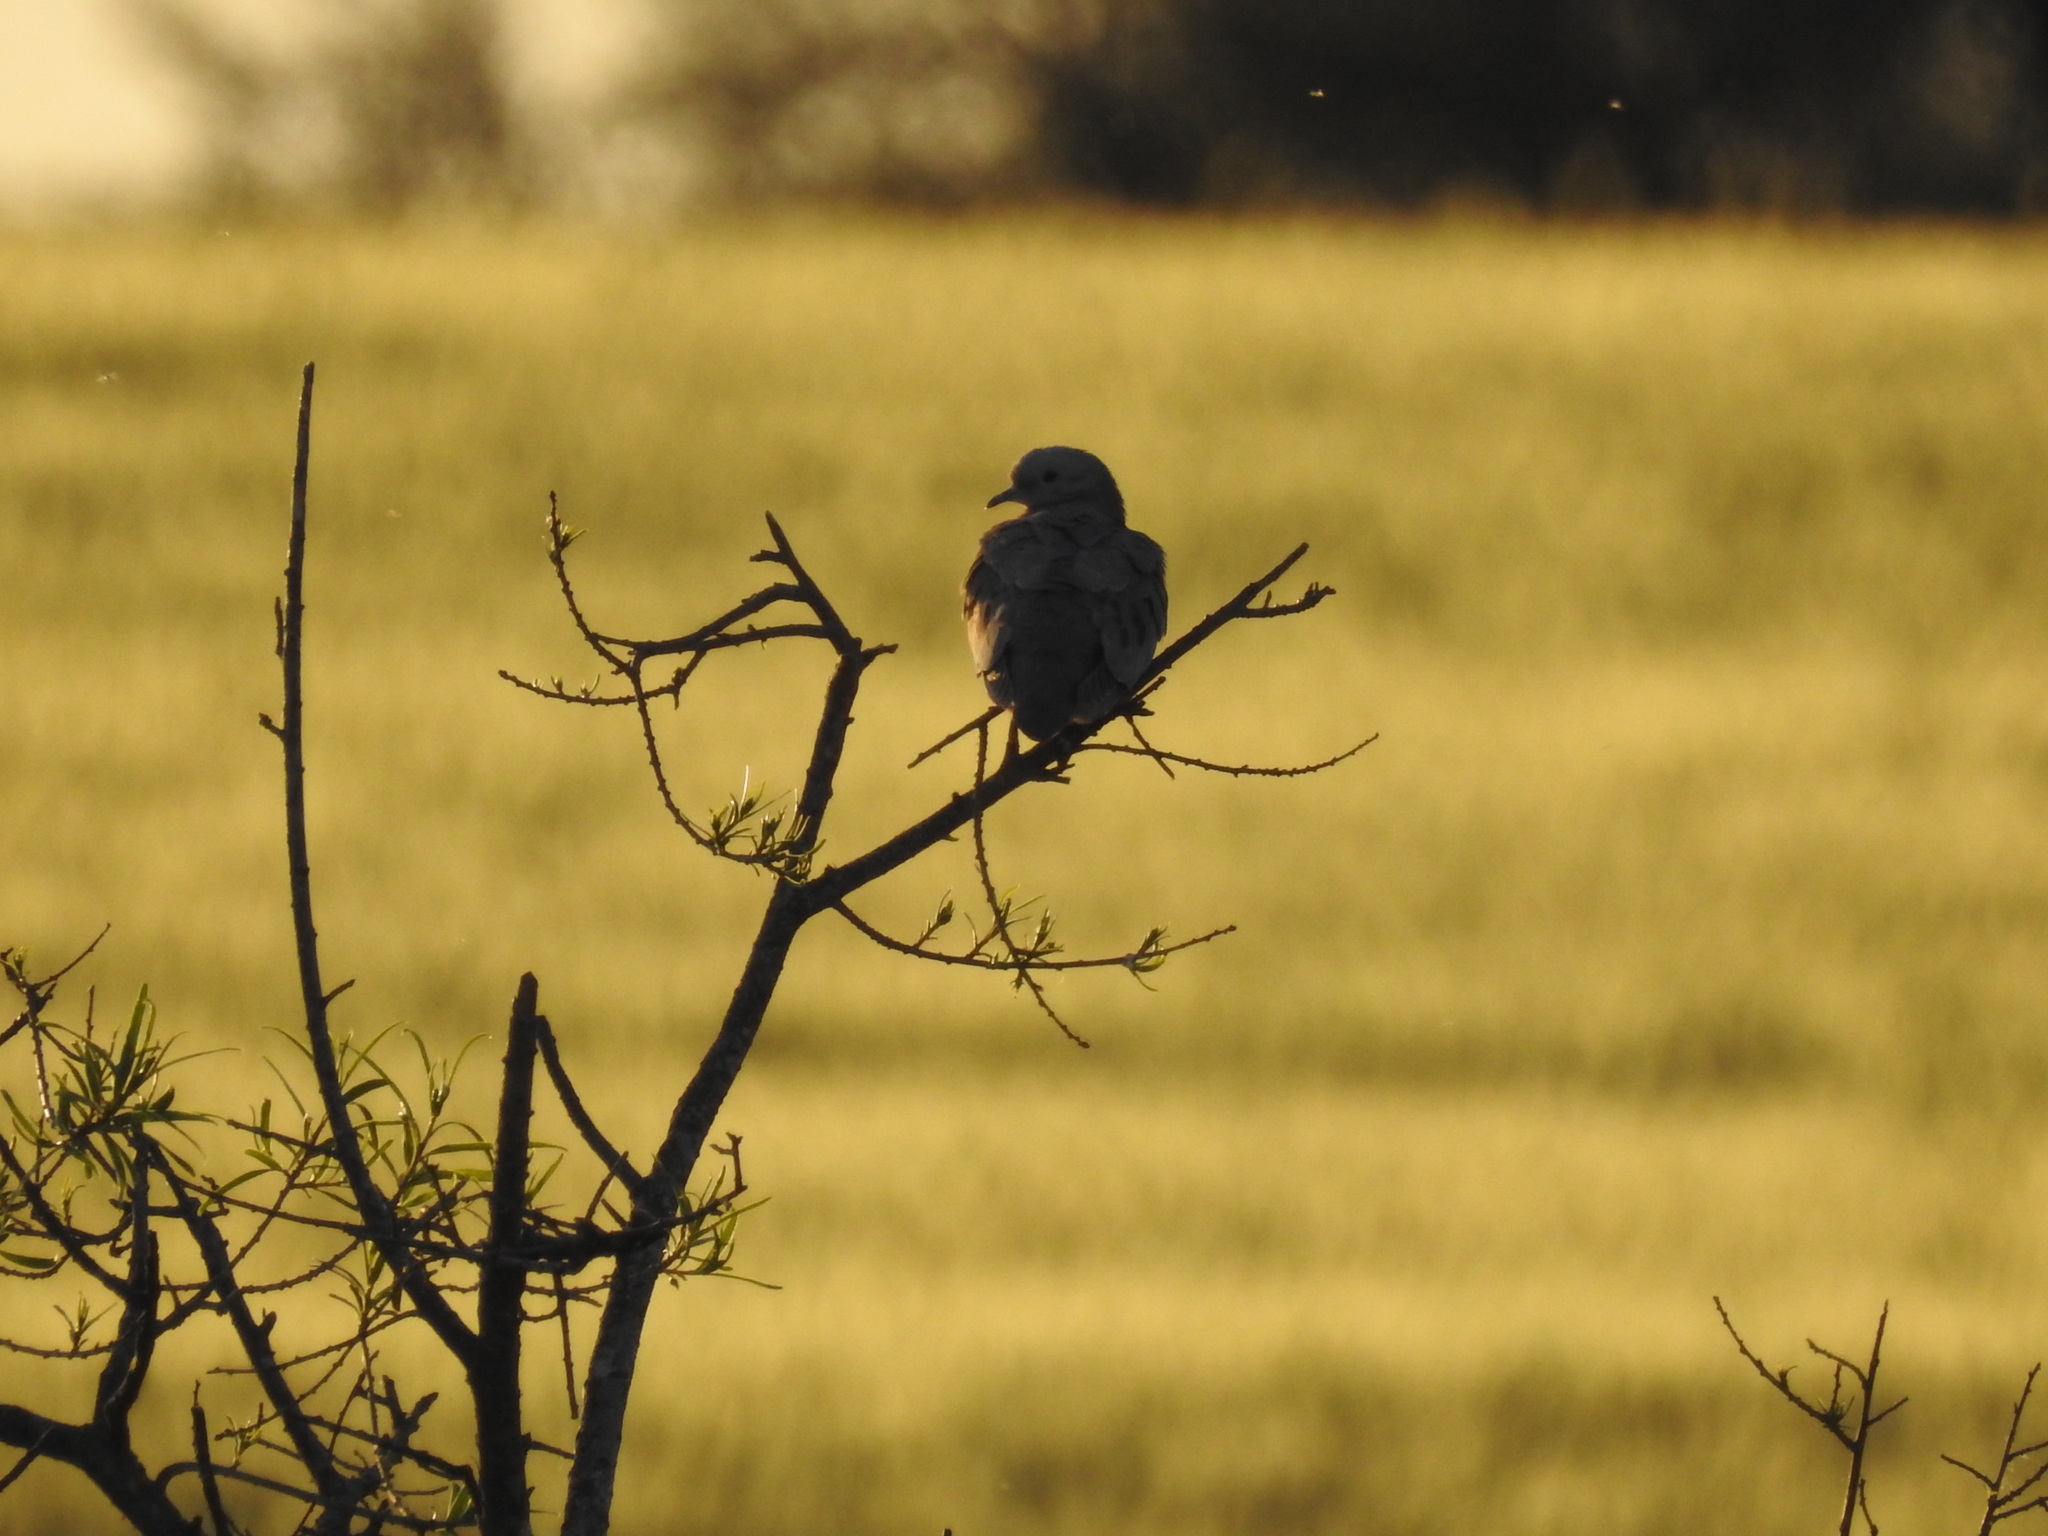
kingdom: Animalia
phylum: Chordata
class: Aves
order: Columbiformes
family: Columbidae
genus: Zenaida
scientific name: Zenaida auriculata
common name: Eared dove
